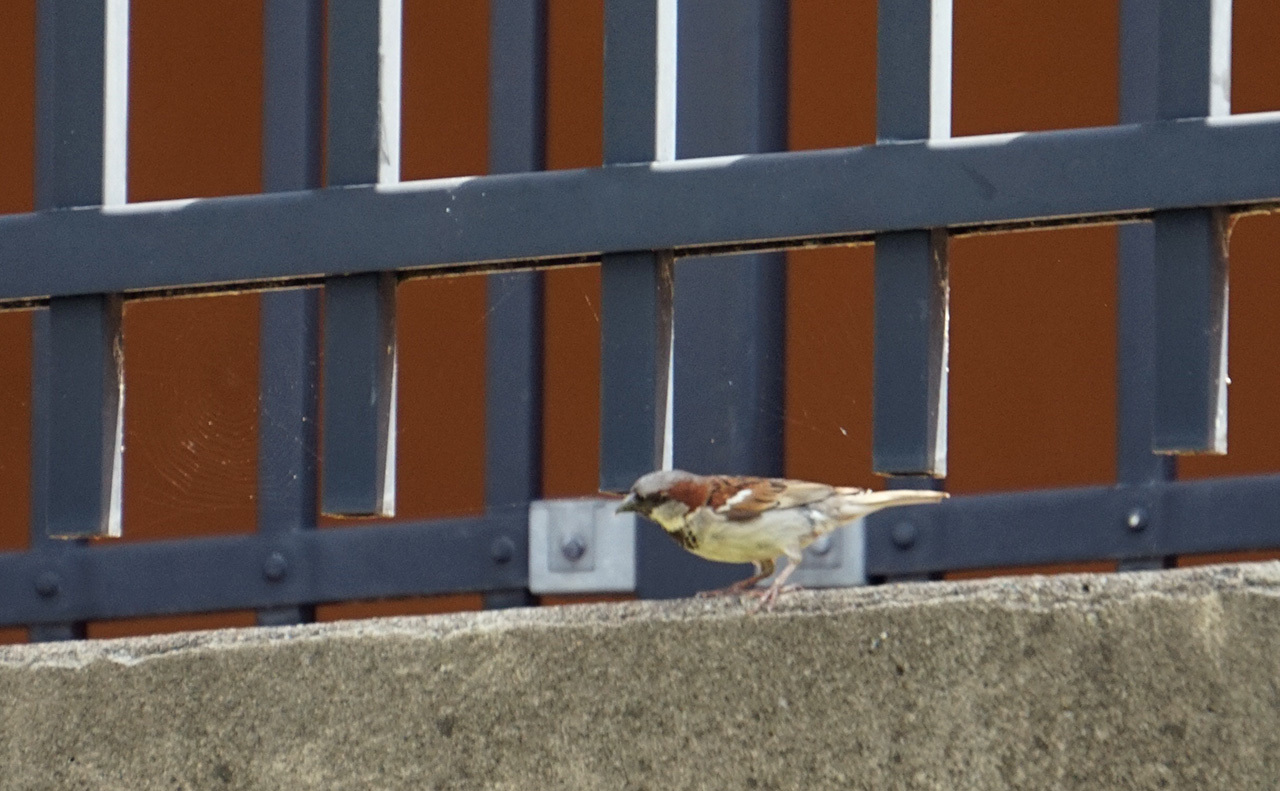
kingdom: Animalia
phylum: Chordata
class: Aves
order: Passeriformes
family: Passeridae
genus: Passer
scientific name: Passer domesticus
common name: House sparrow
